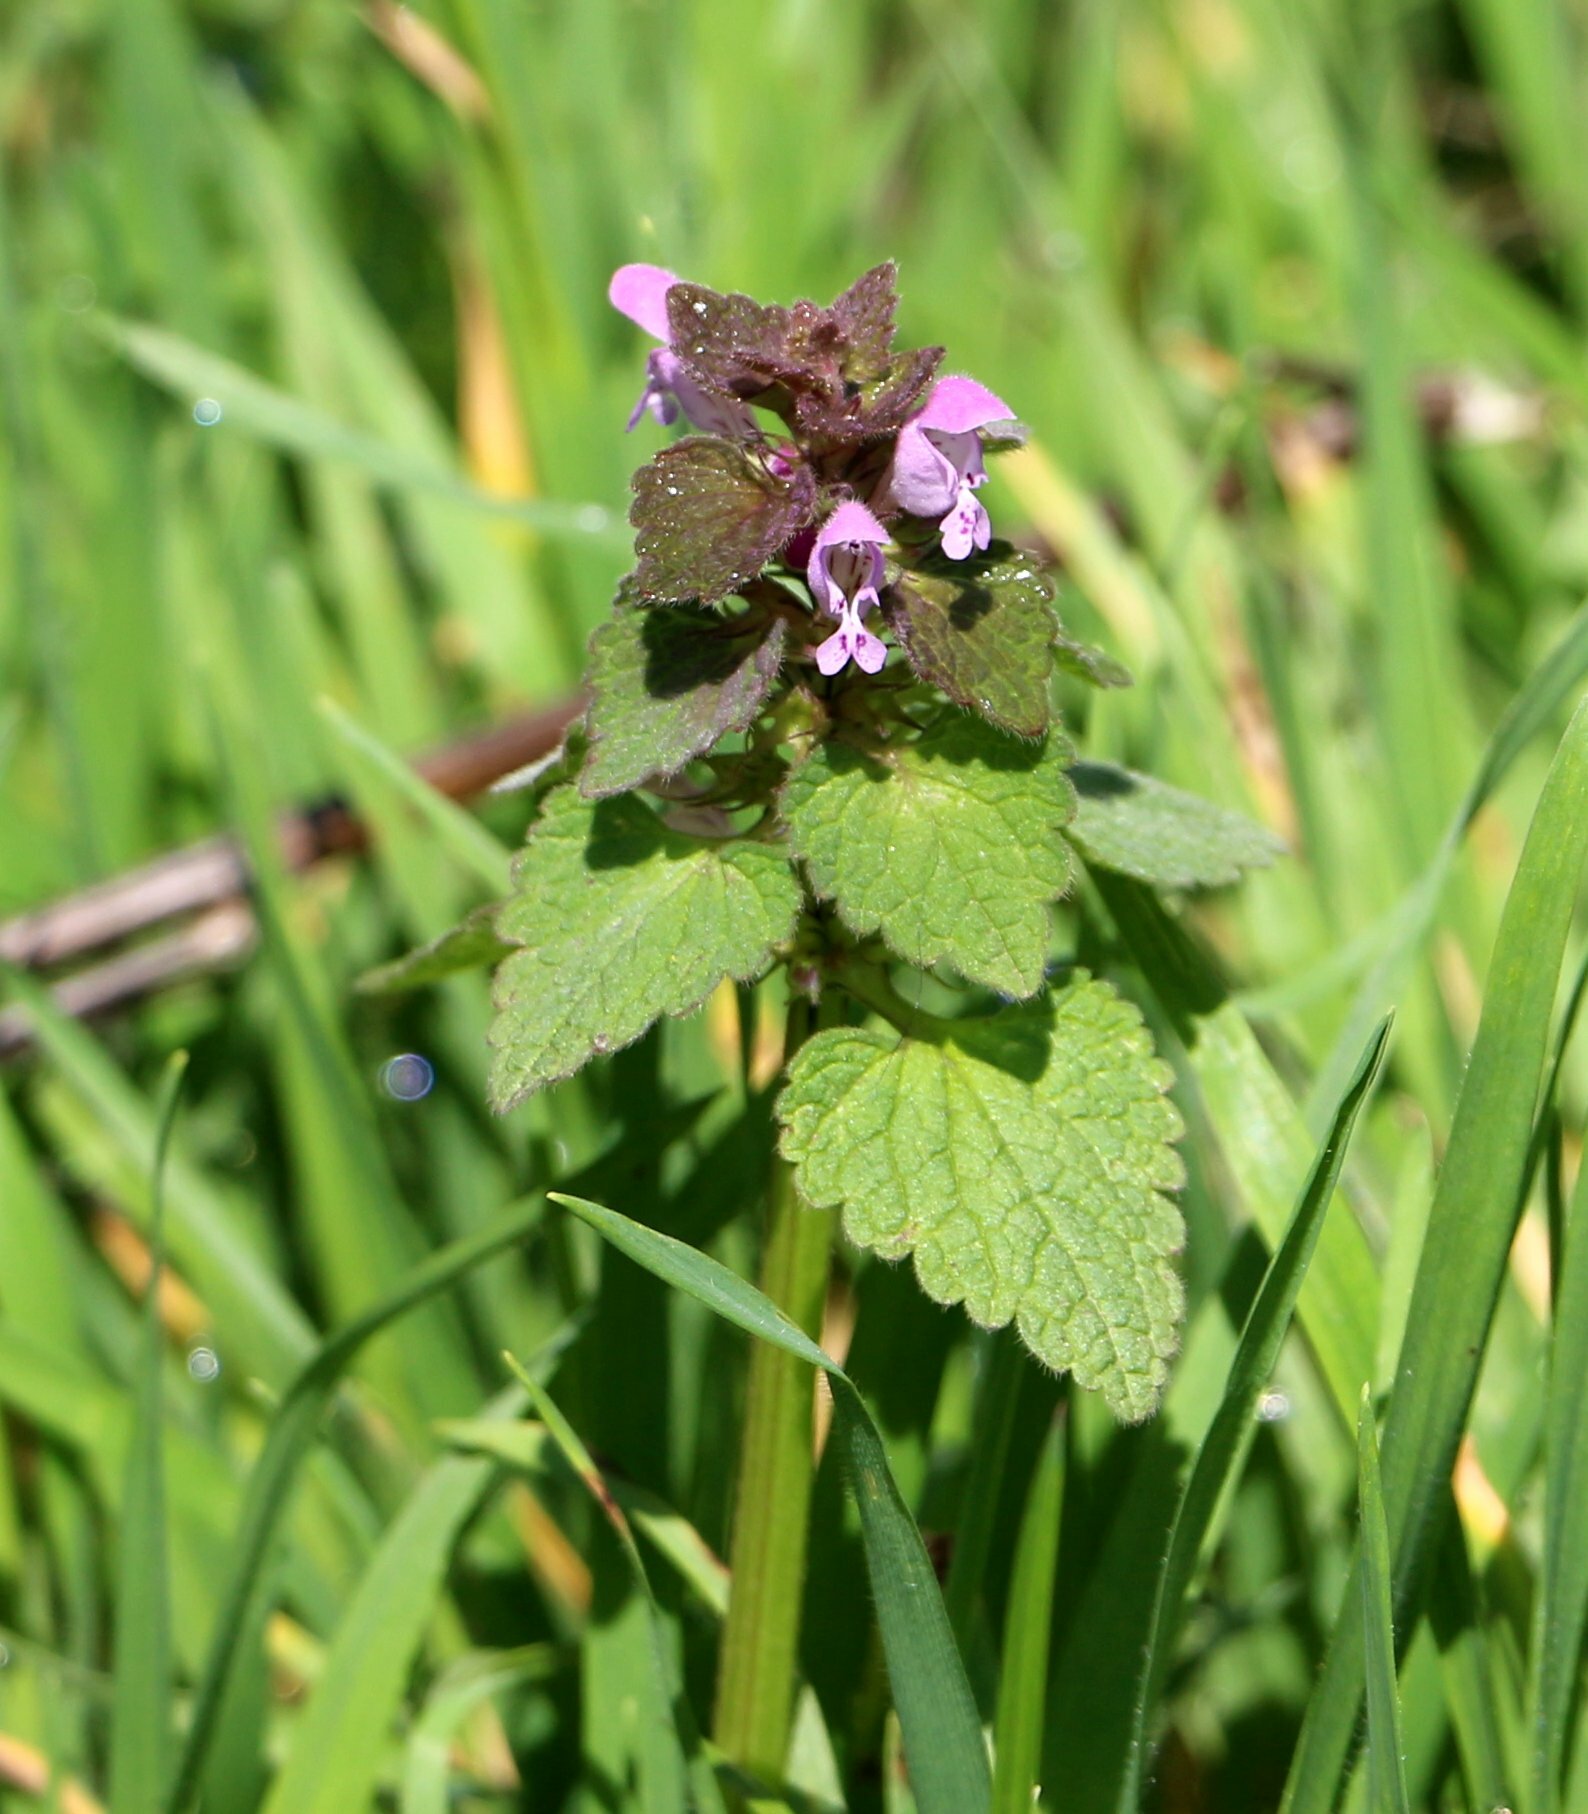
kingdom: Plantae
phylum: Tracheophyta
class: Magnoliopsida
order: Lamiales
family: Lamiaceae
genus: Lamium
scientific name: Lamium purpureum
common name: Red dead-nettle
